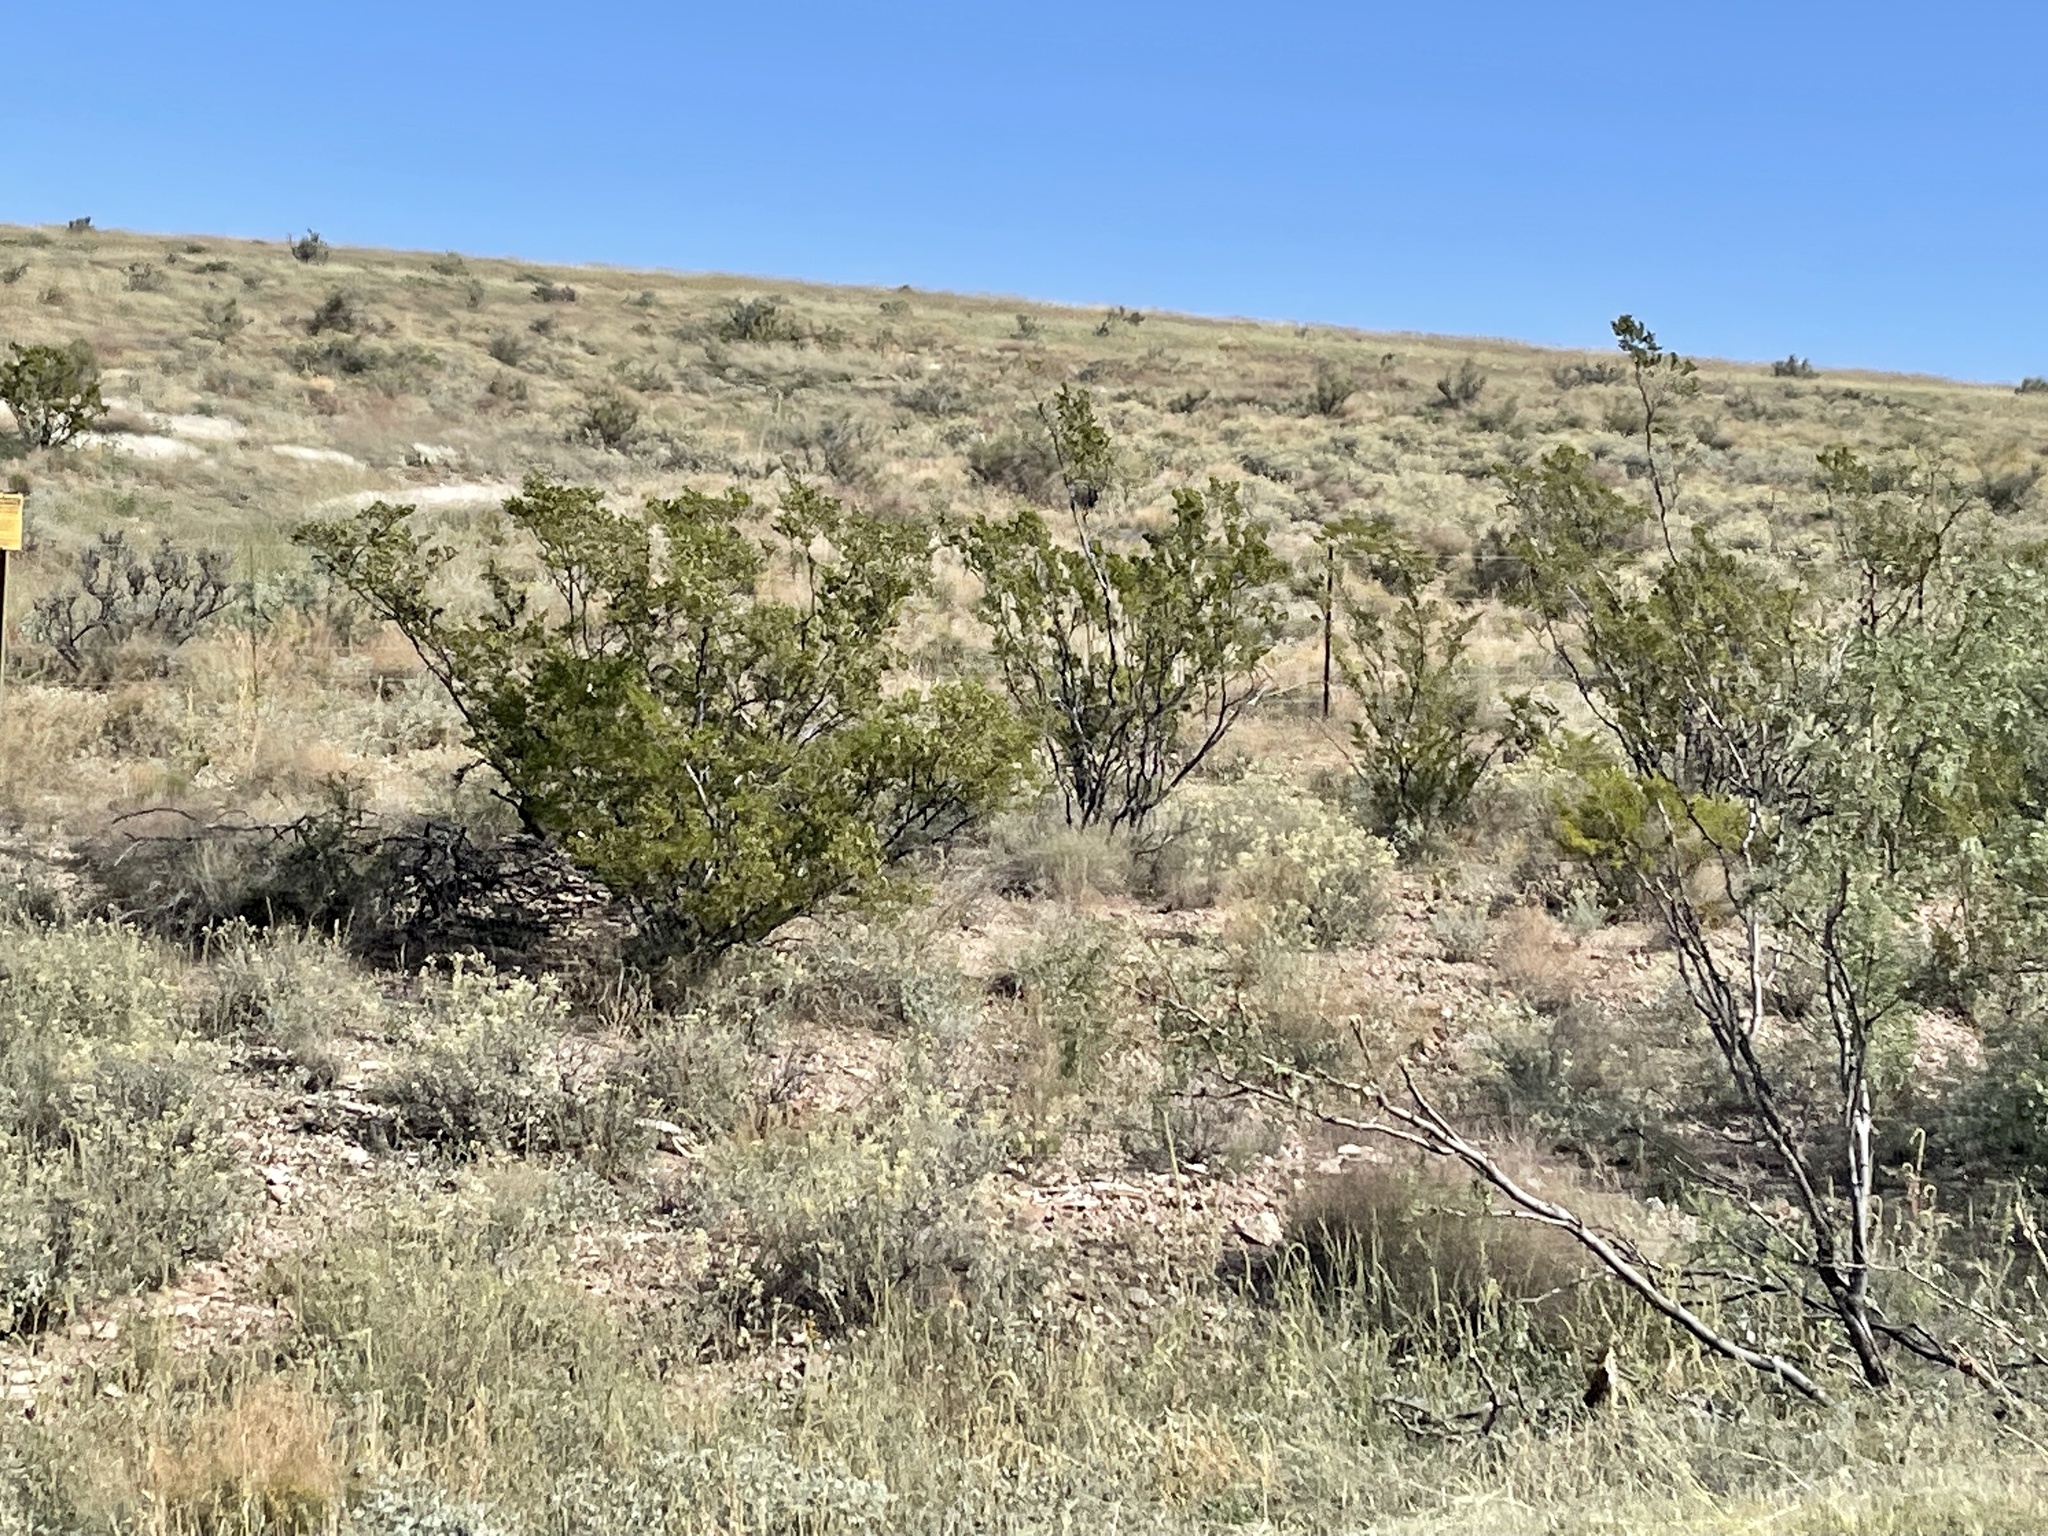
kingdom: Plantae
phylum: Tracheophyta
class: Magnoliopsida
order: Zygophyllales
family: Zygophyllaceae
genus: Larrea
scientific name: Larrea tridentata
